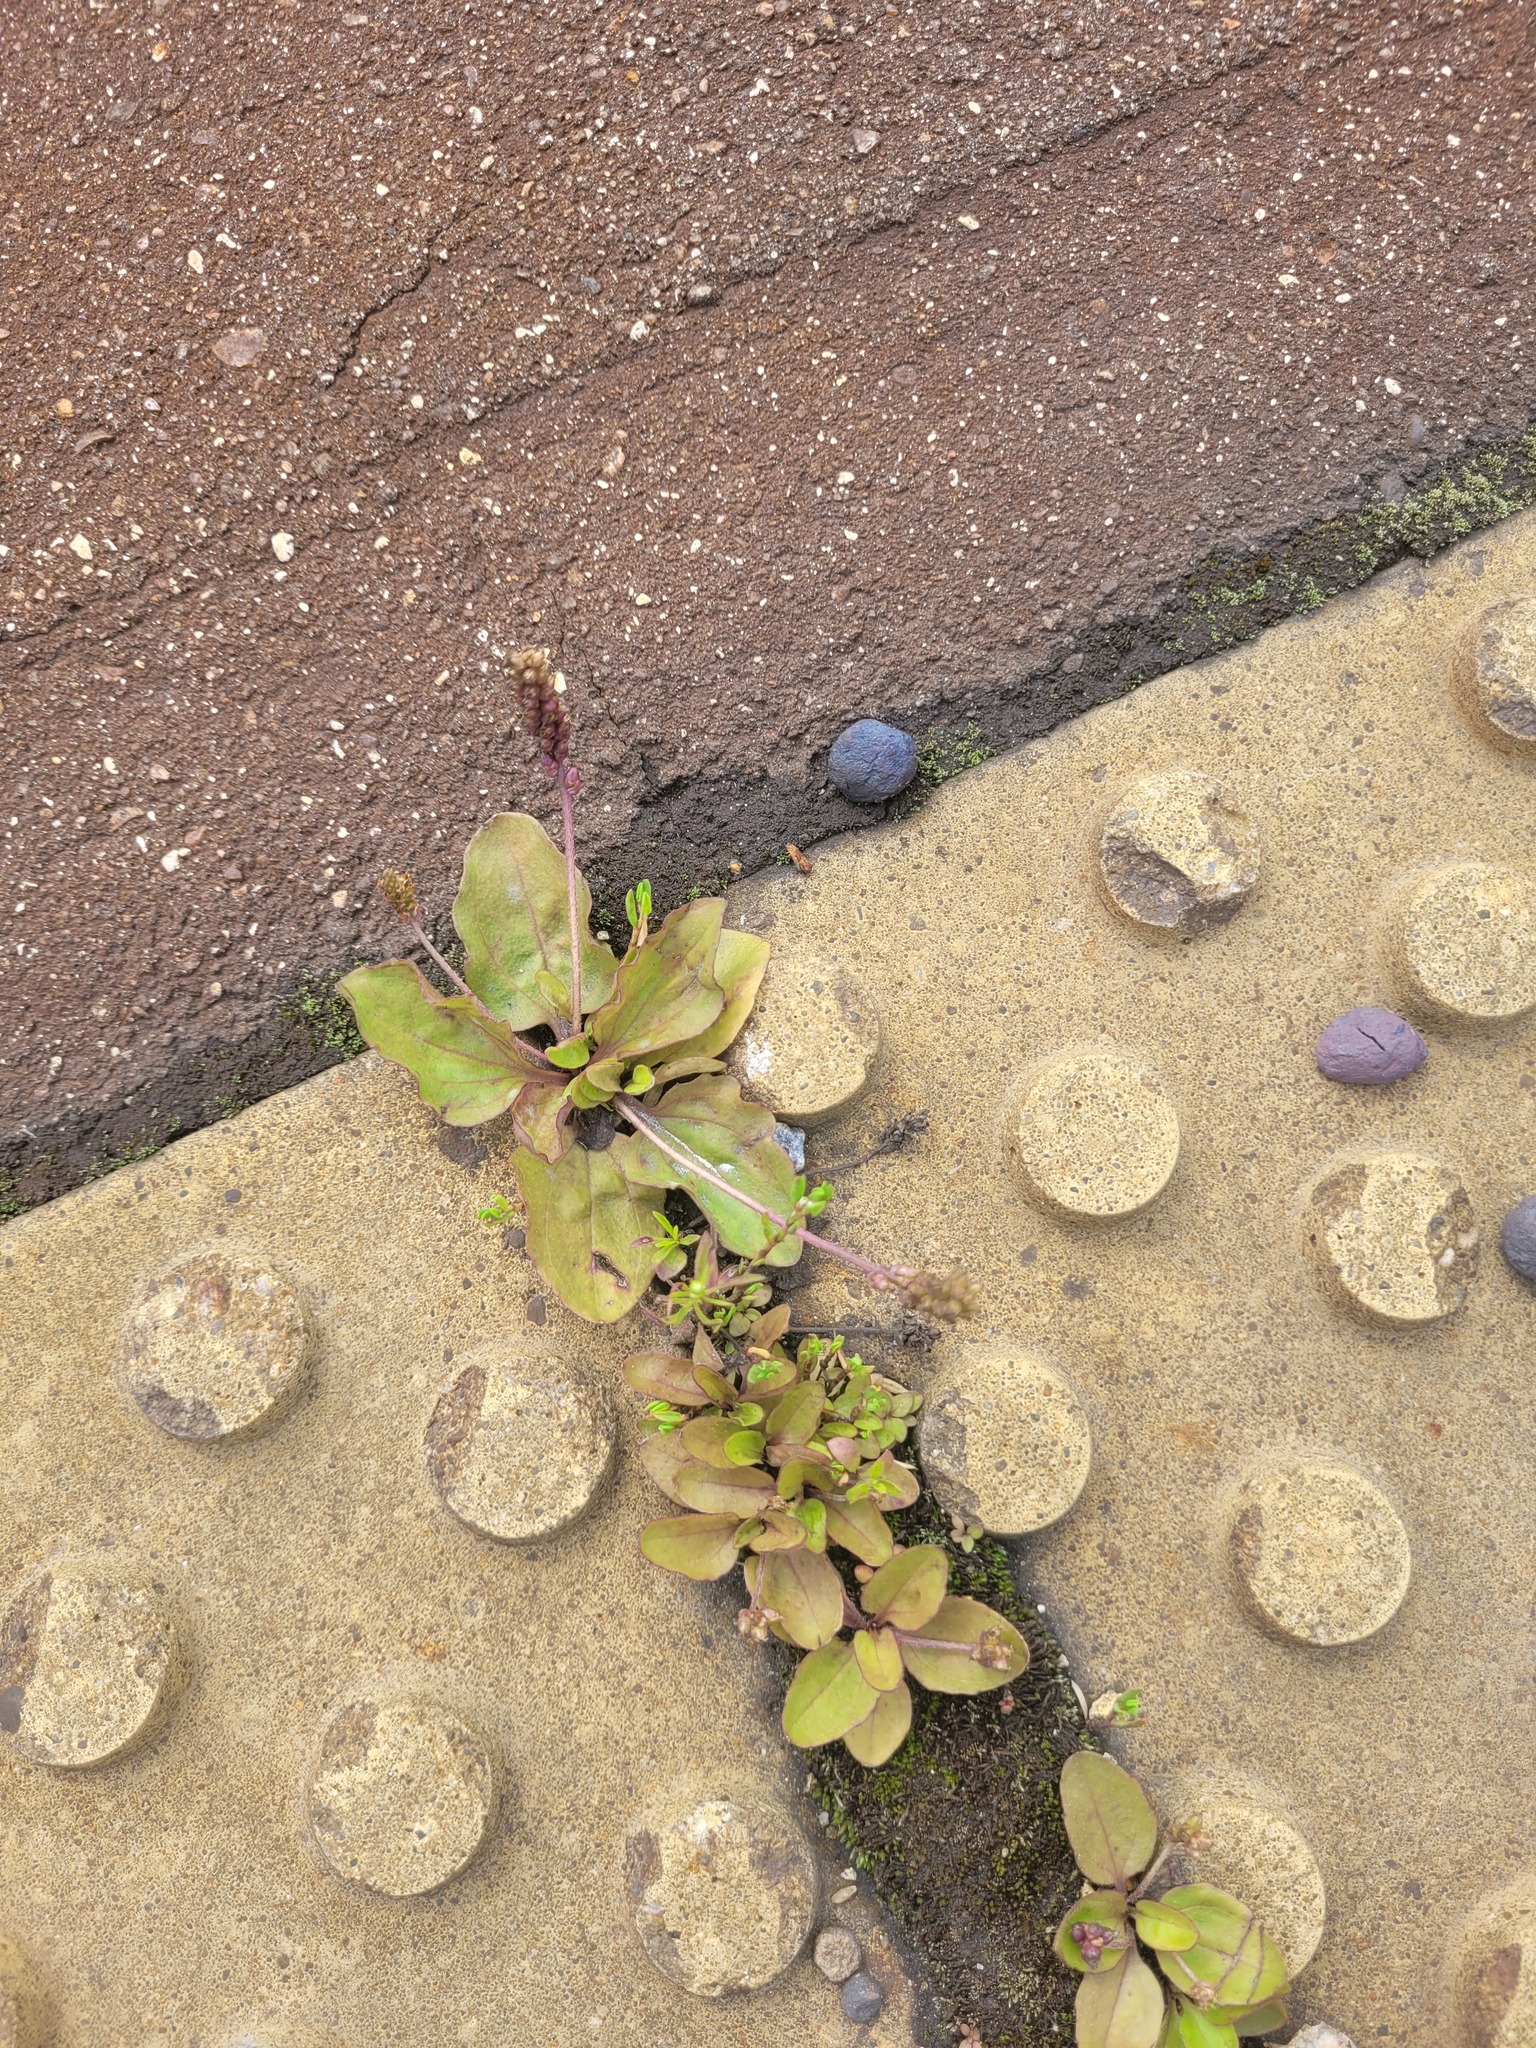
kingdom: Plantae
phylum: Tracheophyta
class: Magnoliopsida
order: Lamiales
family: Plantaginaceae
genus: Plantago
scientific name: Plantago uliginosa
